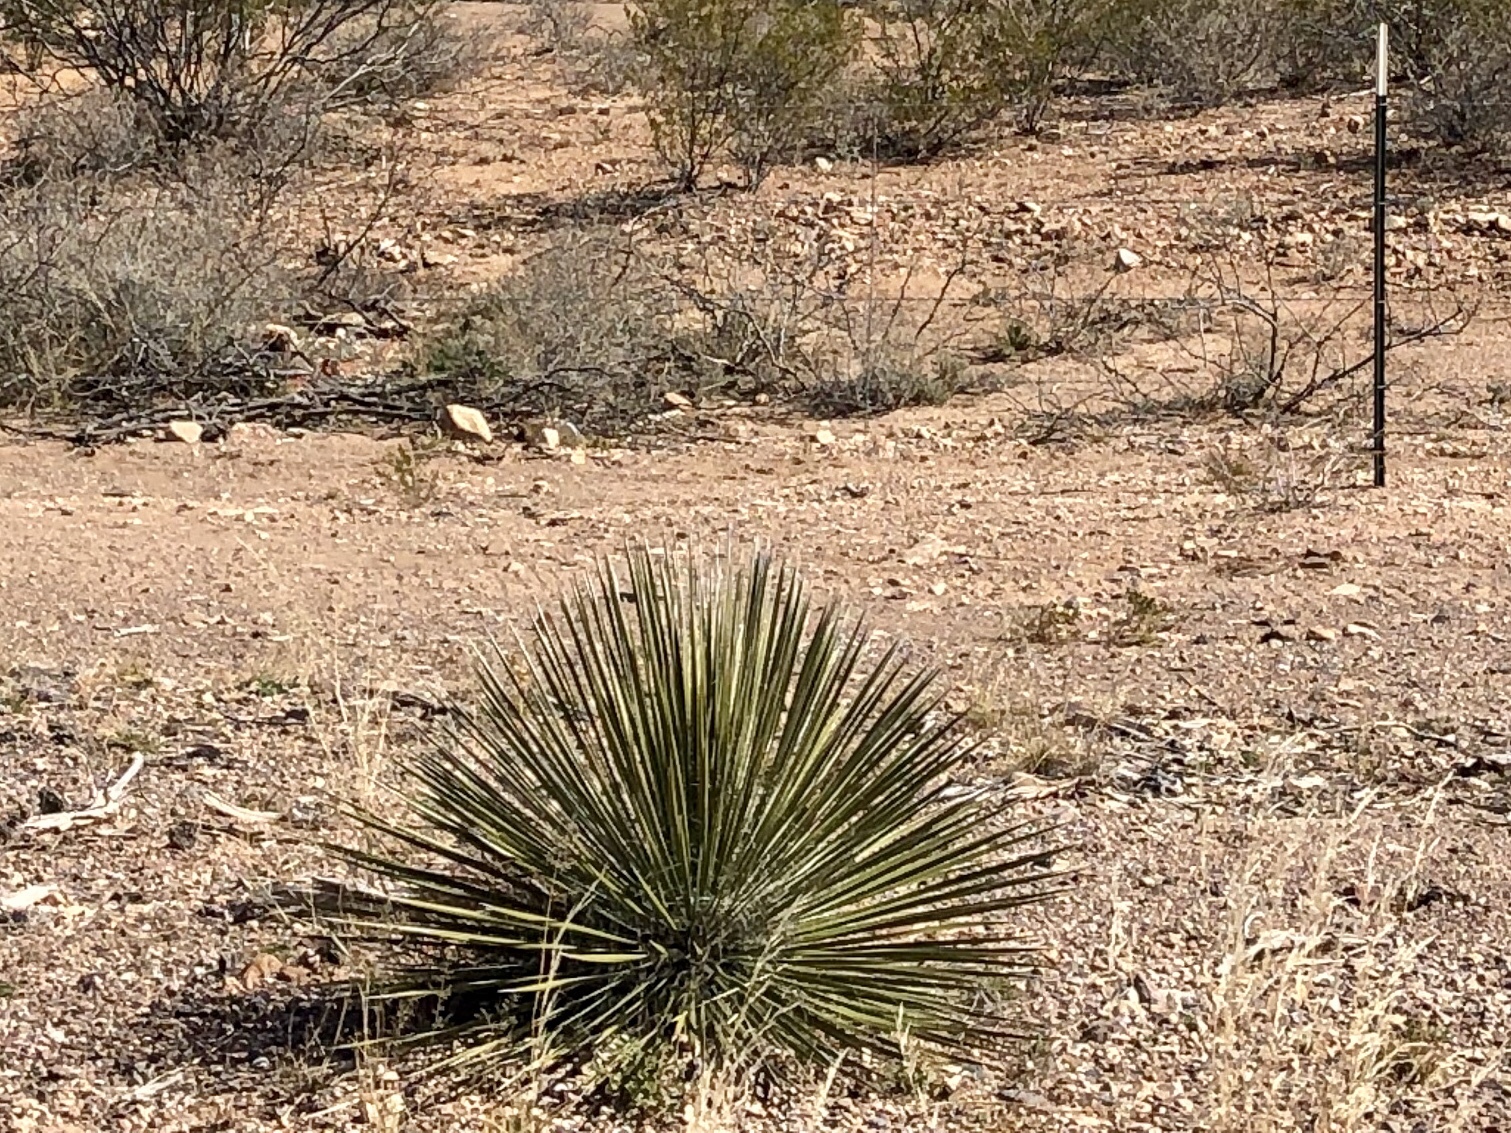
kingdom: Plantae
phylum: Tracheophyta
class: Liliopsida
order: Asparagales
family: Asparagaceae
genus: Yucca
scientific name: Yucca elata
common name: Palmella
